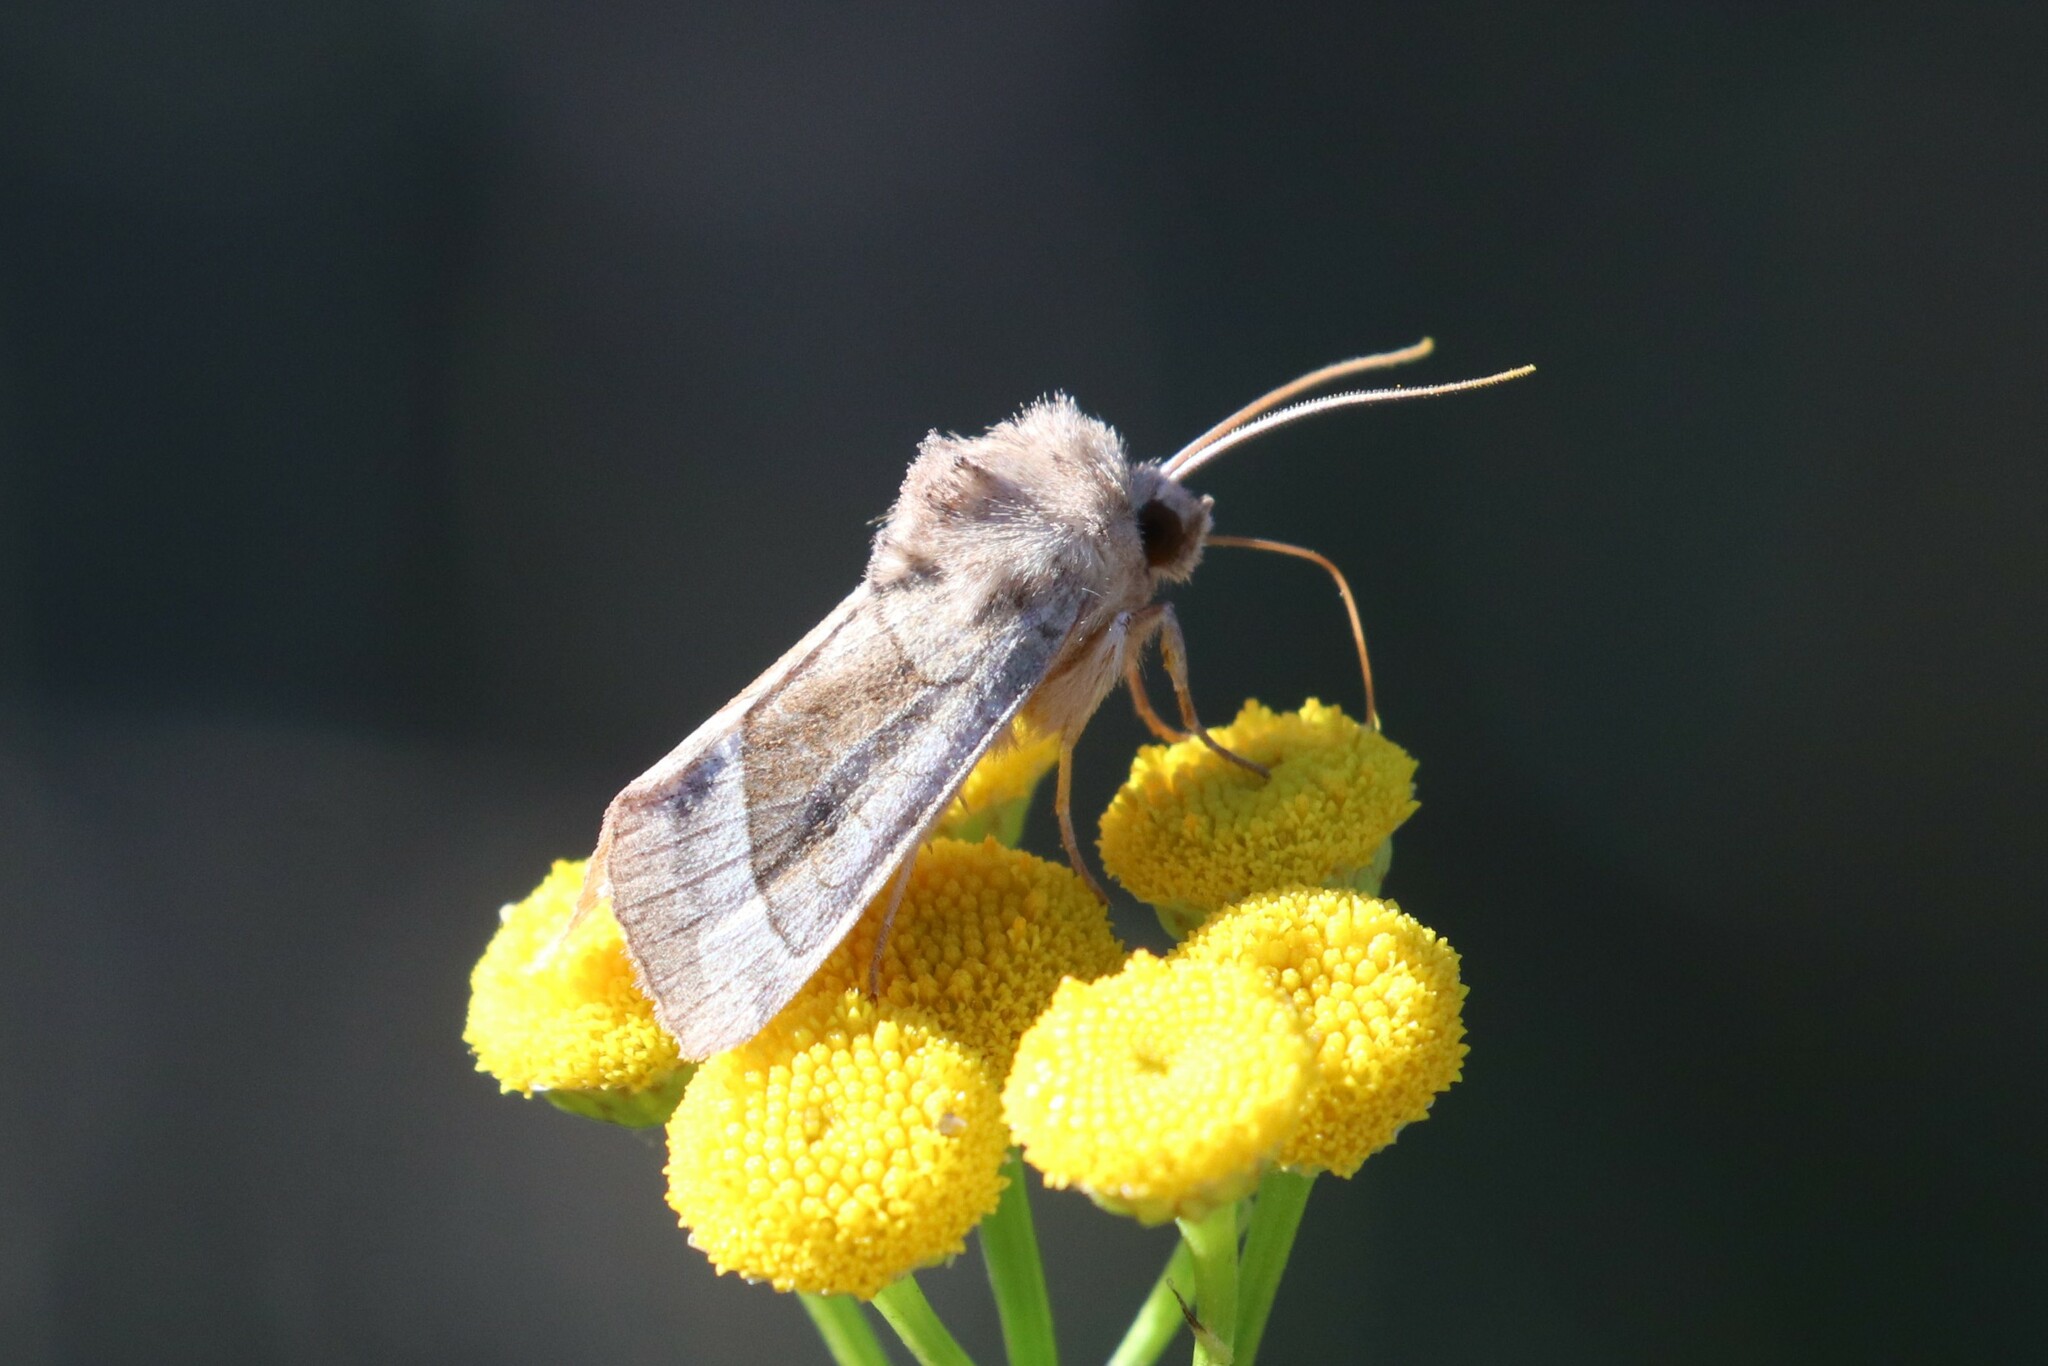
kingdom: Animalia
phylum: Arthropoda
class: Insecta
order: Lepidoptera
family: Noctuidae
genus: Hydraecia
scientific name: Hydraecia micacea
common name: Rosy rustic
